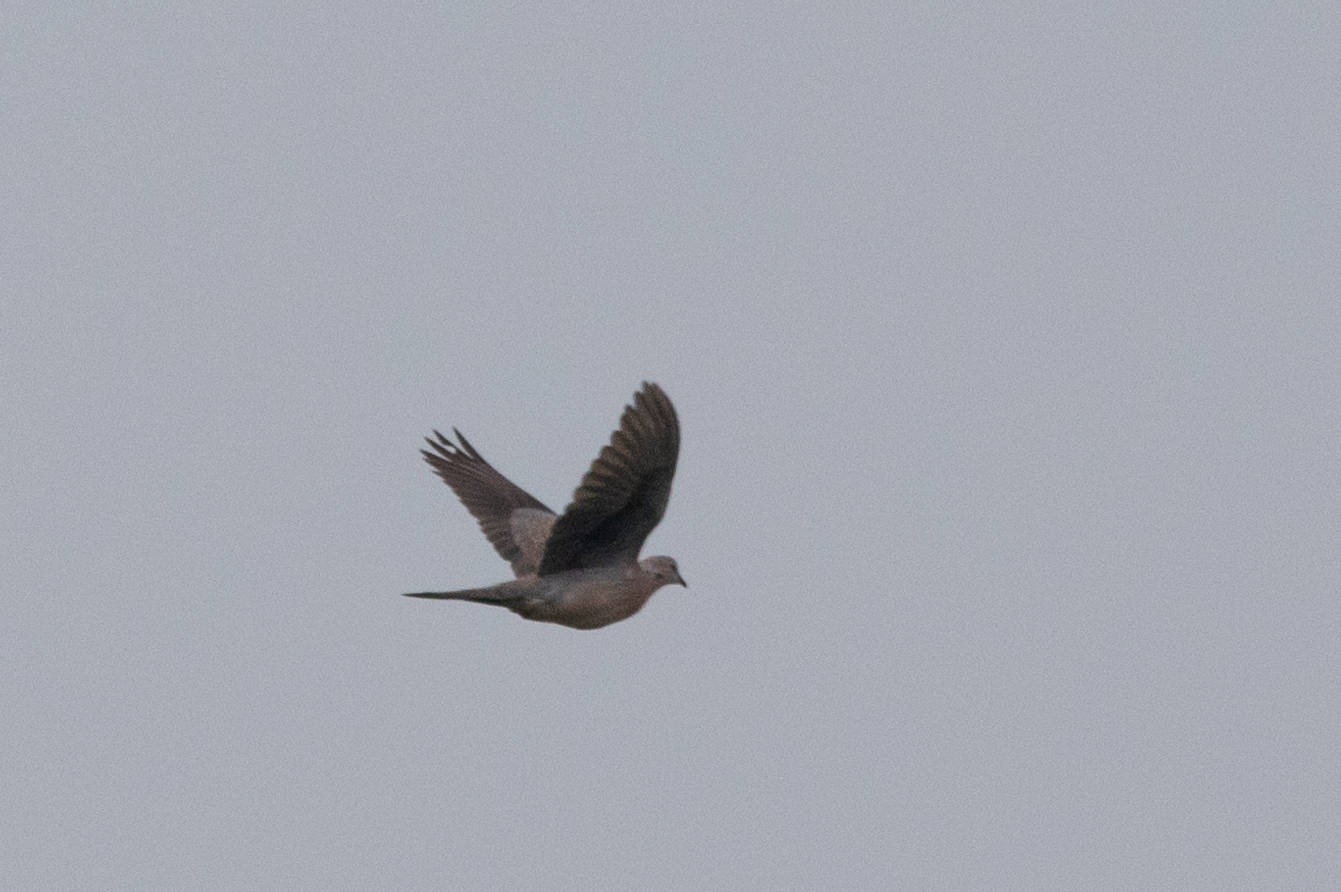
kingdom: Animalia
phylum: Chordata
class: Aves
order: Columbiformes
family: Columbidae
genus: Streptopelia
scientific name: Streptopelia orientalis
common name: Oriental turtle dove
